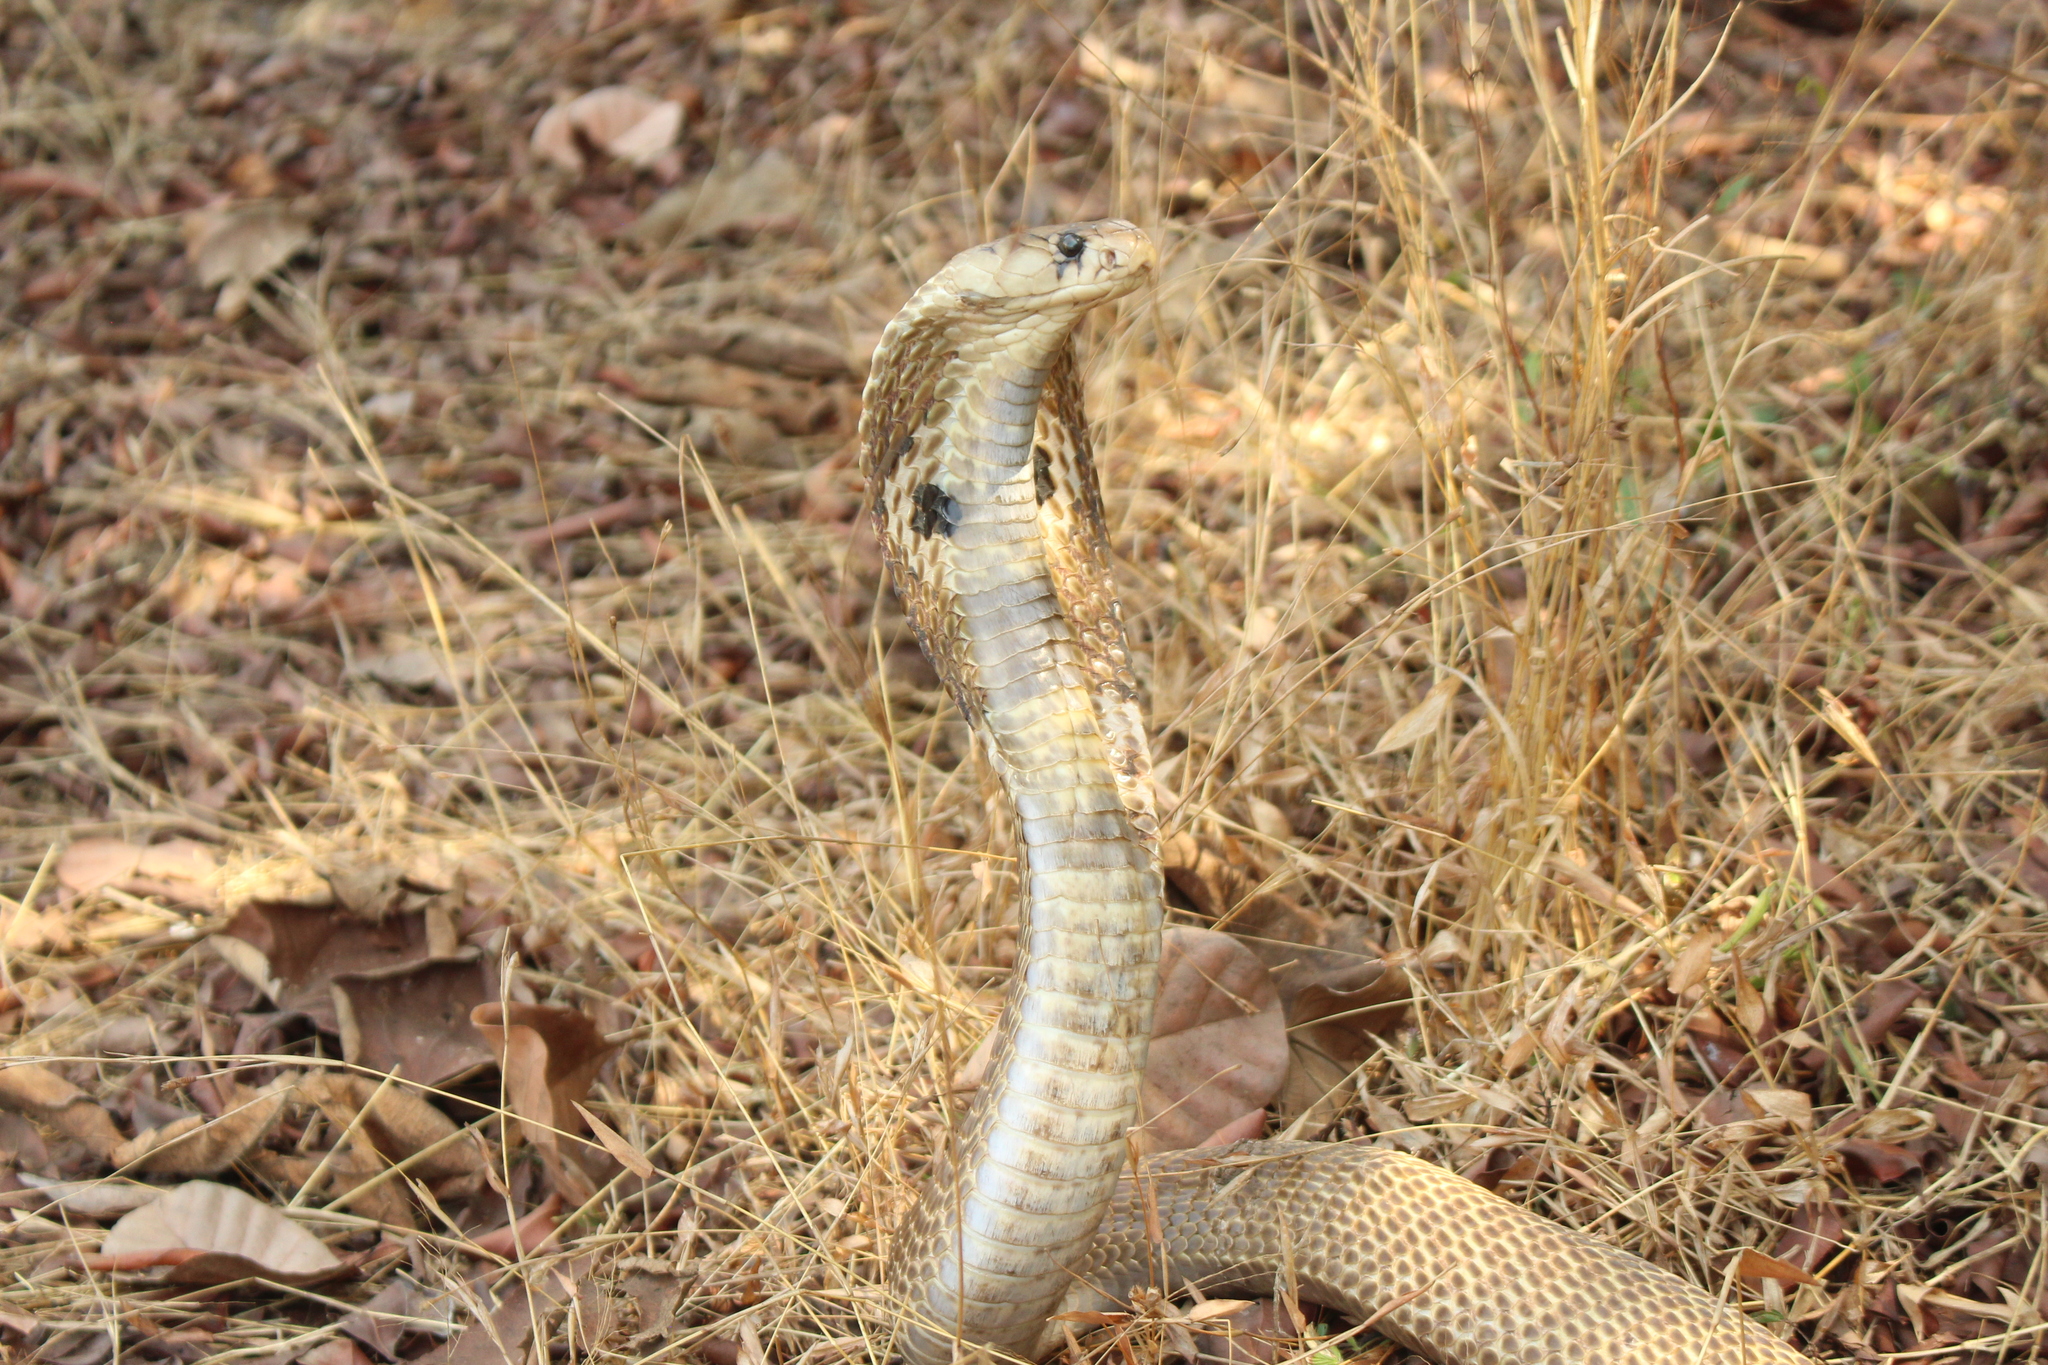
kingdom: Animalia
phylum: Chordata
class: Squamata
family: Elapidae
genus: Naja
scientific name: Naja naja
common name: Indian cobra
